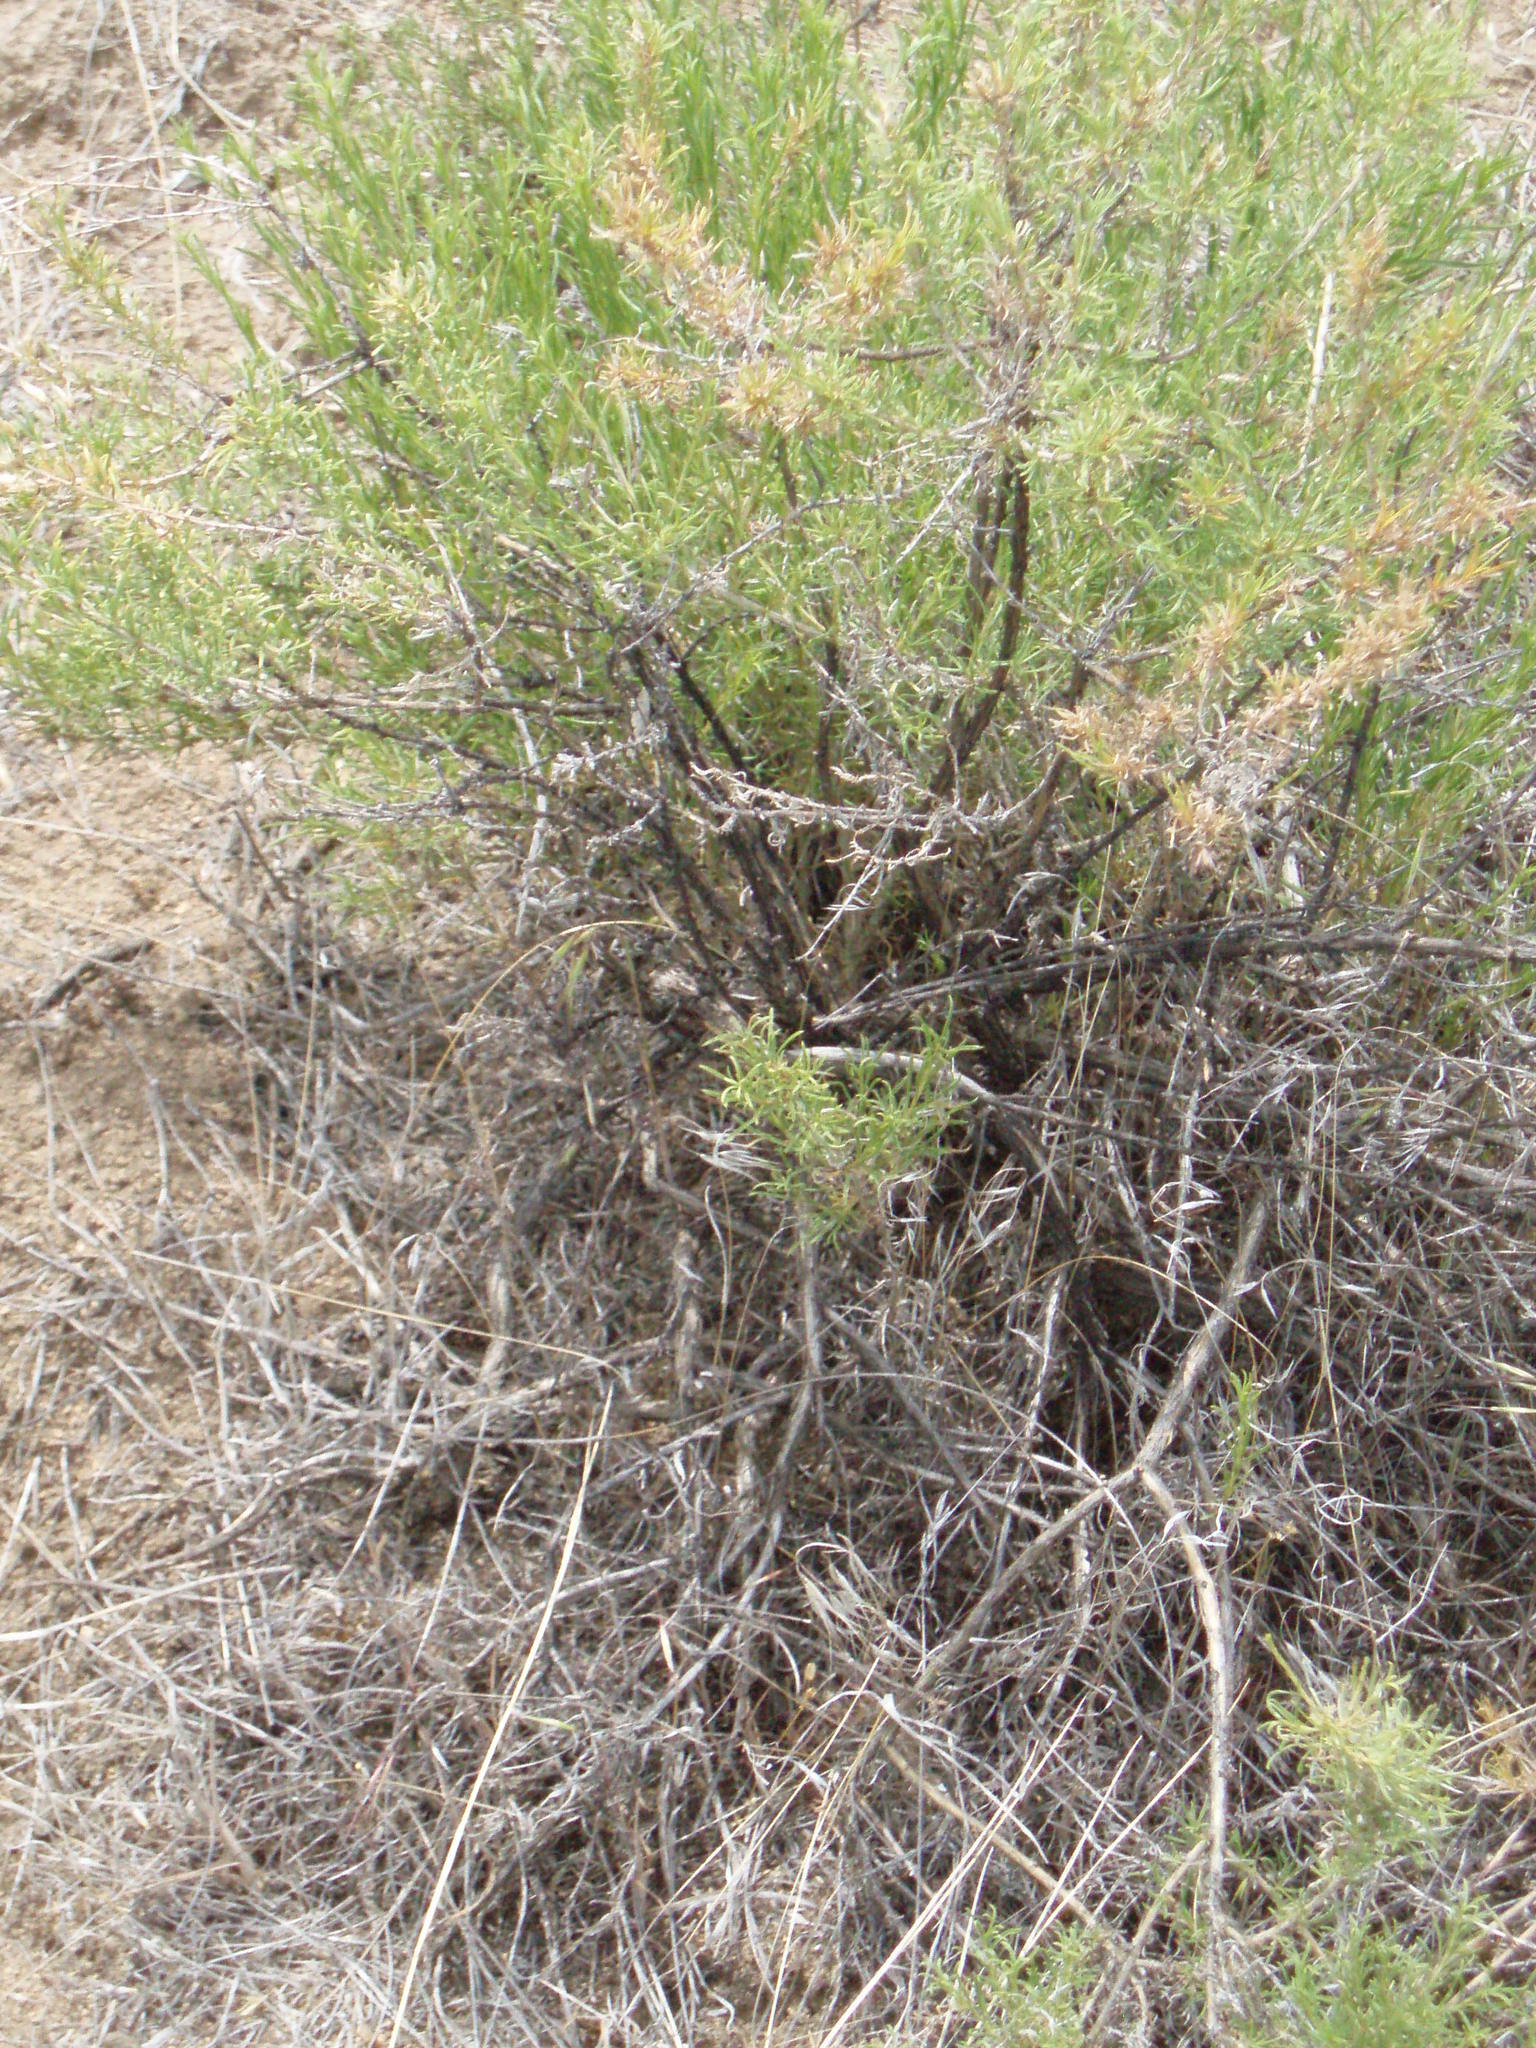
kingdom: Plantae
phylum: Tracheophyta
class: Magnoliopsida
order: Asterales
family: Asteraceae
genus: Chrysothamnus
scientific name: Chrysothamnus viscidiflorus
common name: Yellow rabbitbrush
